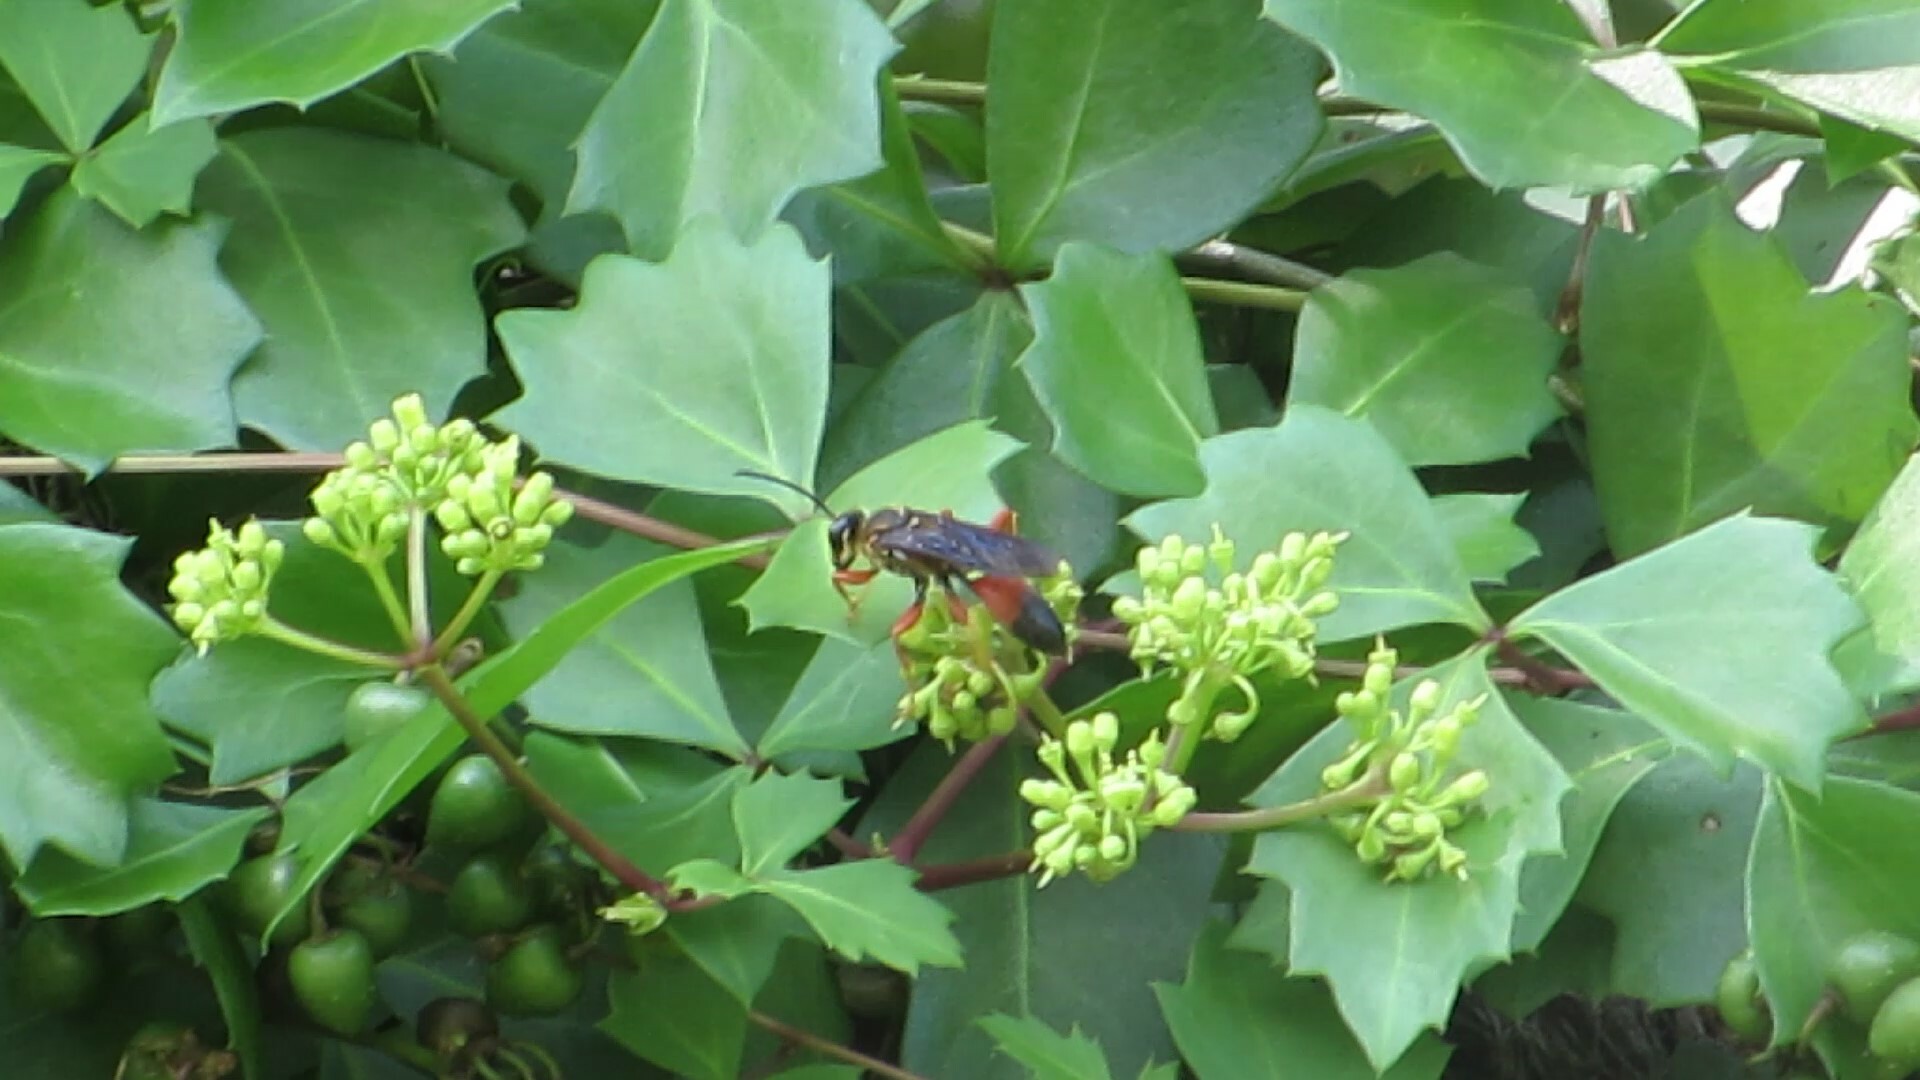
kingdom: Animalia
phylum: Arthropoda
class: Insecta
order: Hymenoptera
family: Sphecidae
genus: Sphex
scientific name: Sphex ichneumoneus
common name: Great golden digger wasp
